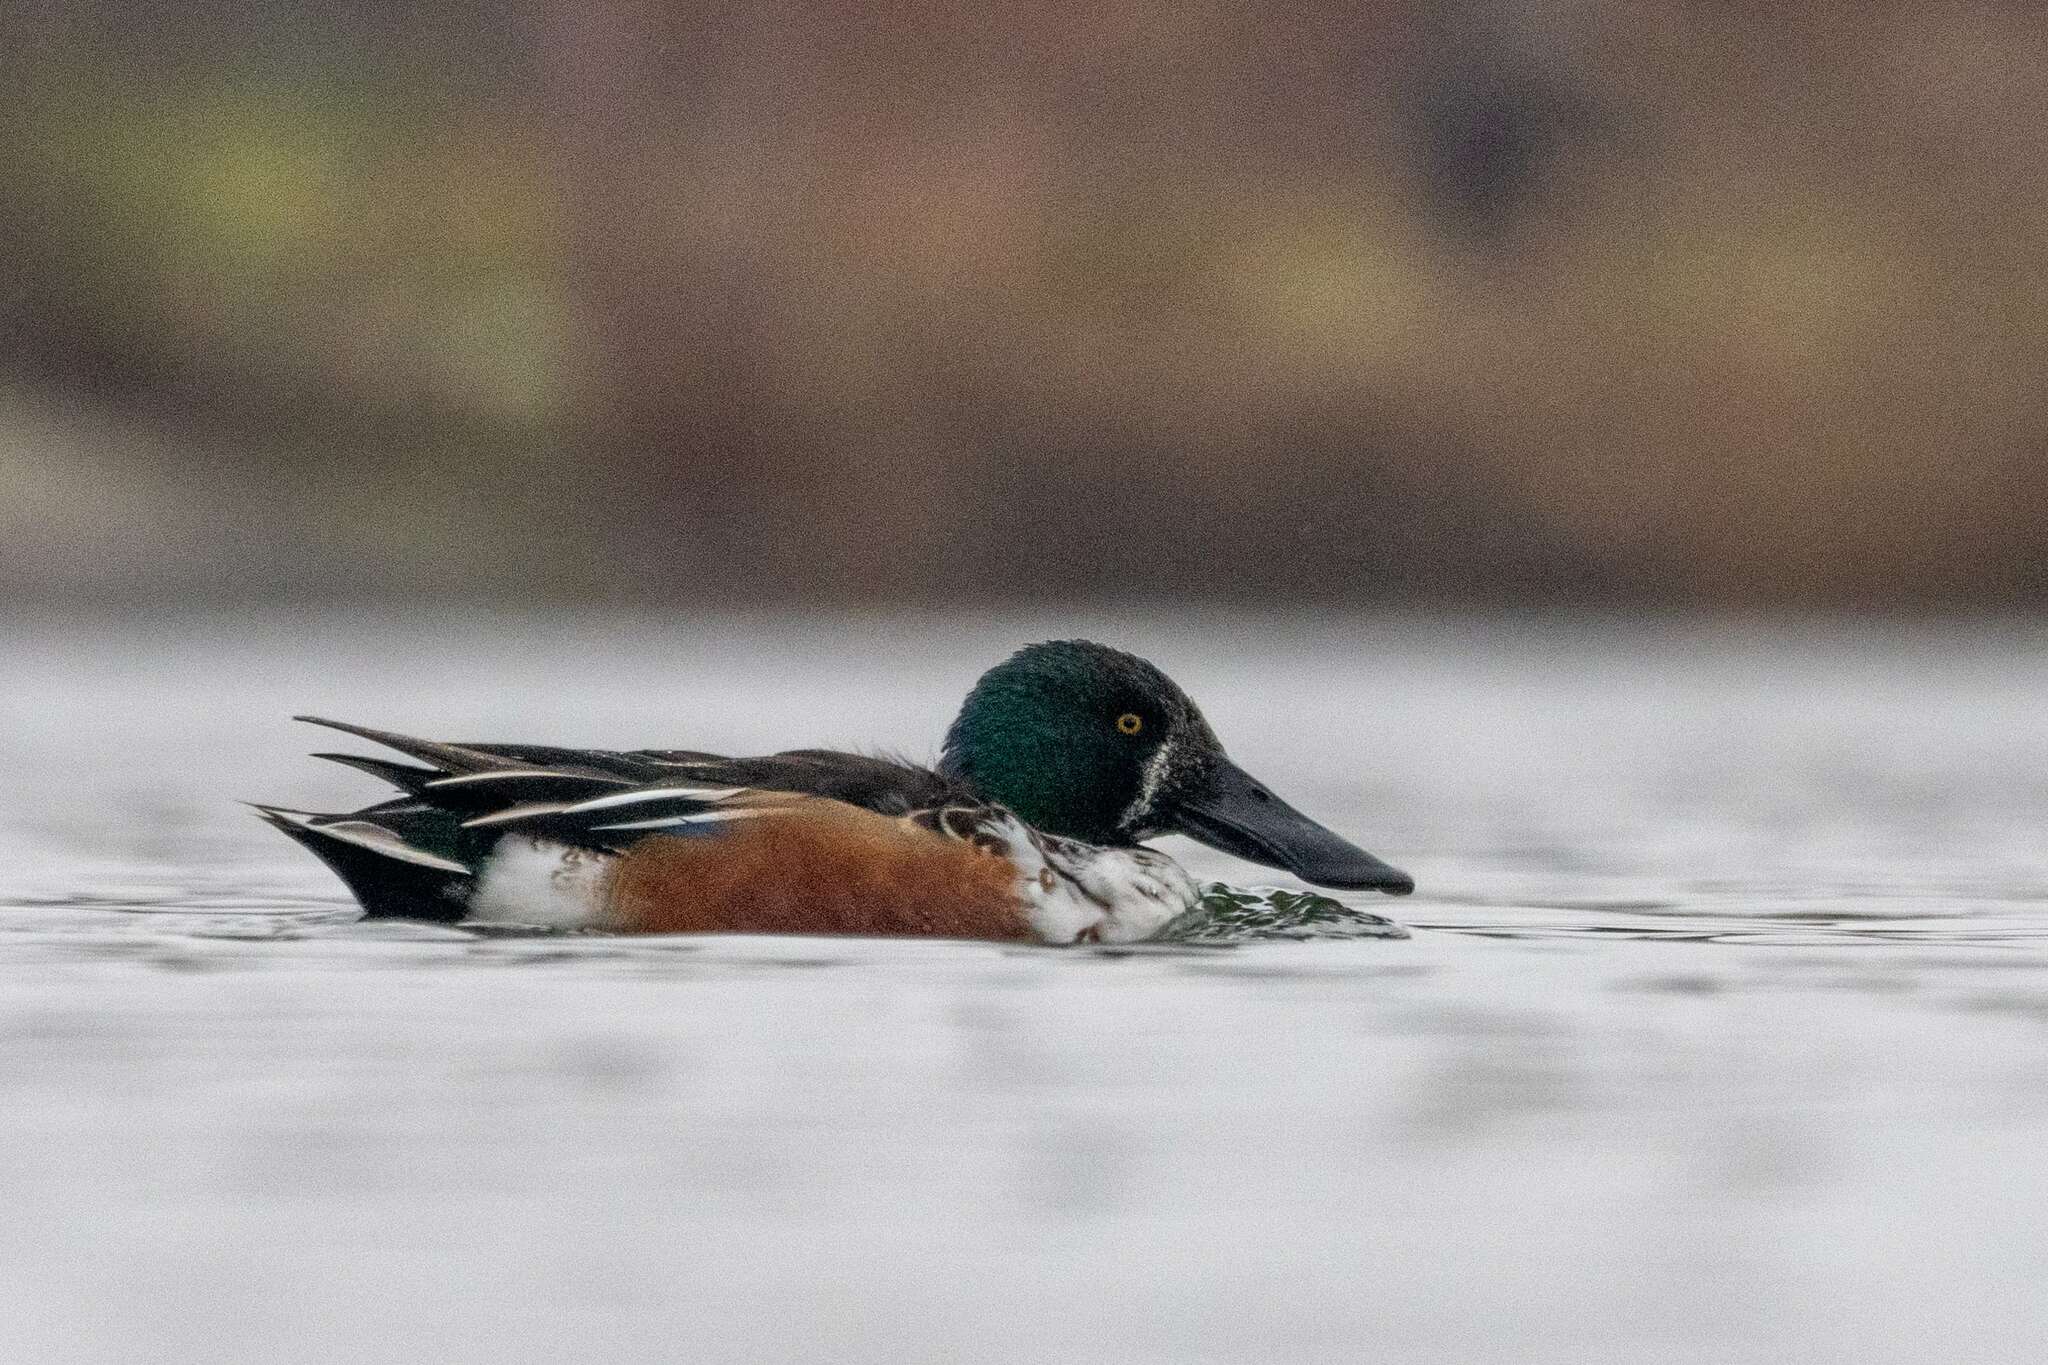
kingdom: Animalia
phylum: Chordata
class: Aves
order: Anseriformes
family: Anatidae
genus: Spatula
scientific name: Spatula clypeata
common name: Northern shoveler
